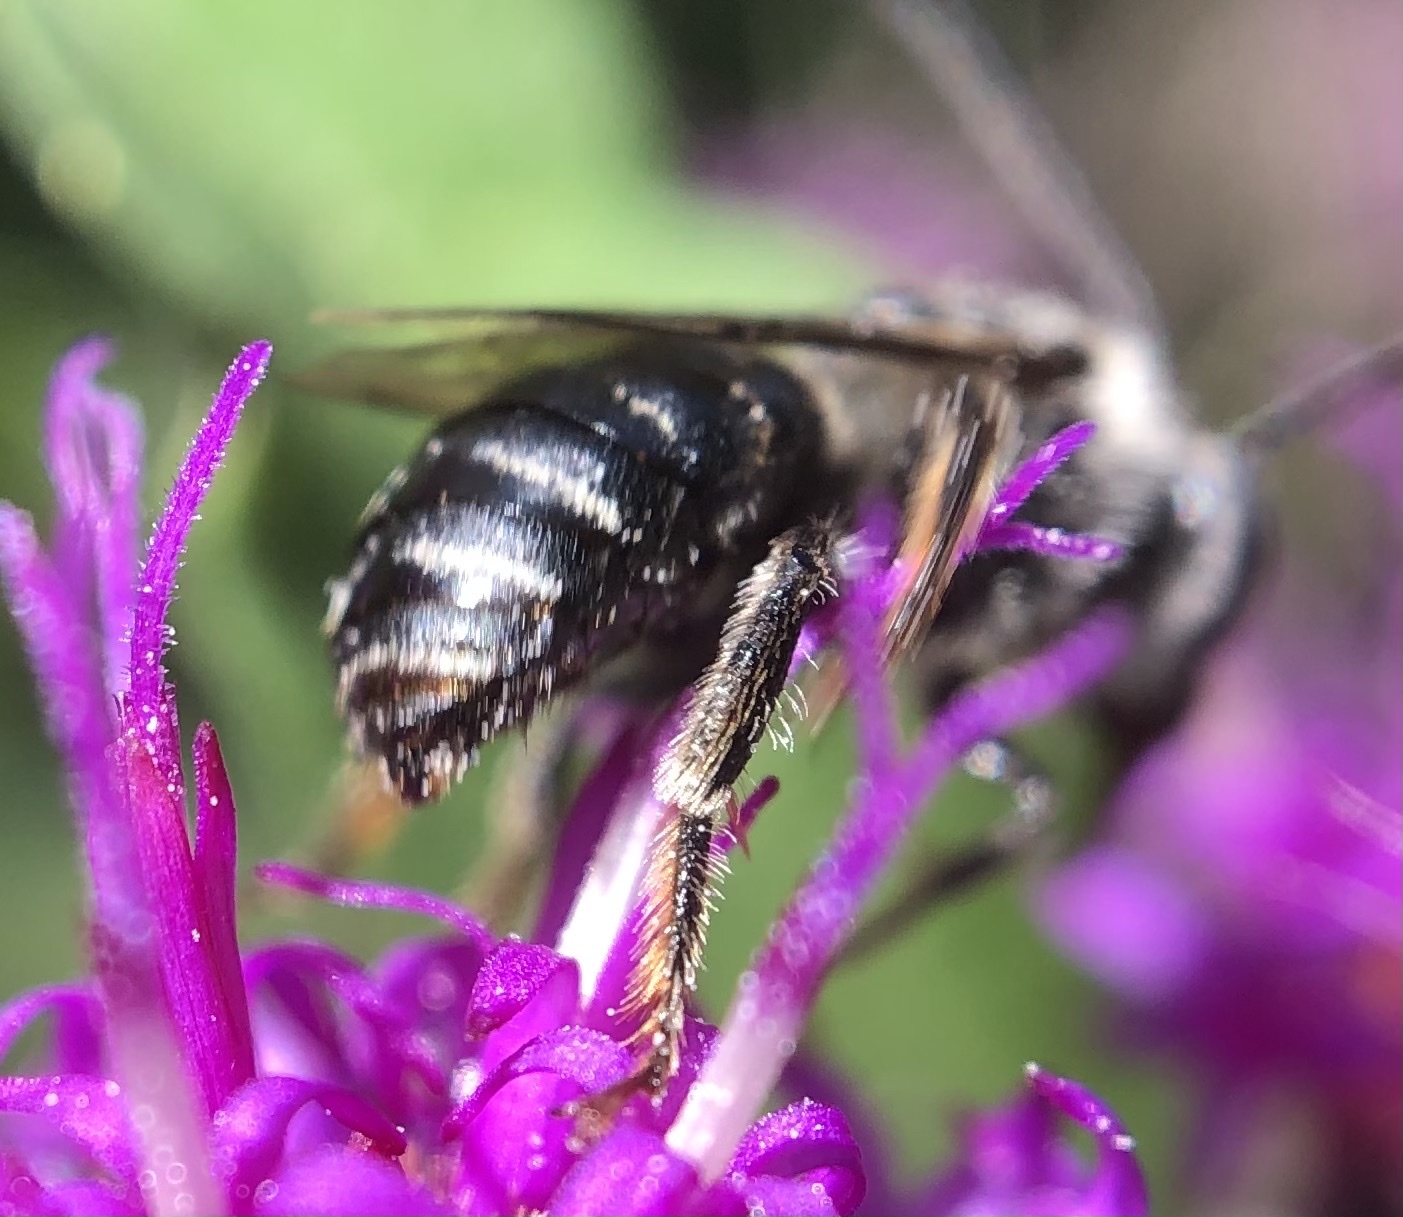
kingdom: Animalia
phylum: Arthropoda
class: Insecta
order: Hymenoptera
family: Apidae
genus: Melissodes
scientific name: Melissodes denticulatus
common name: Denticulate long-horned bee
